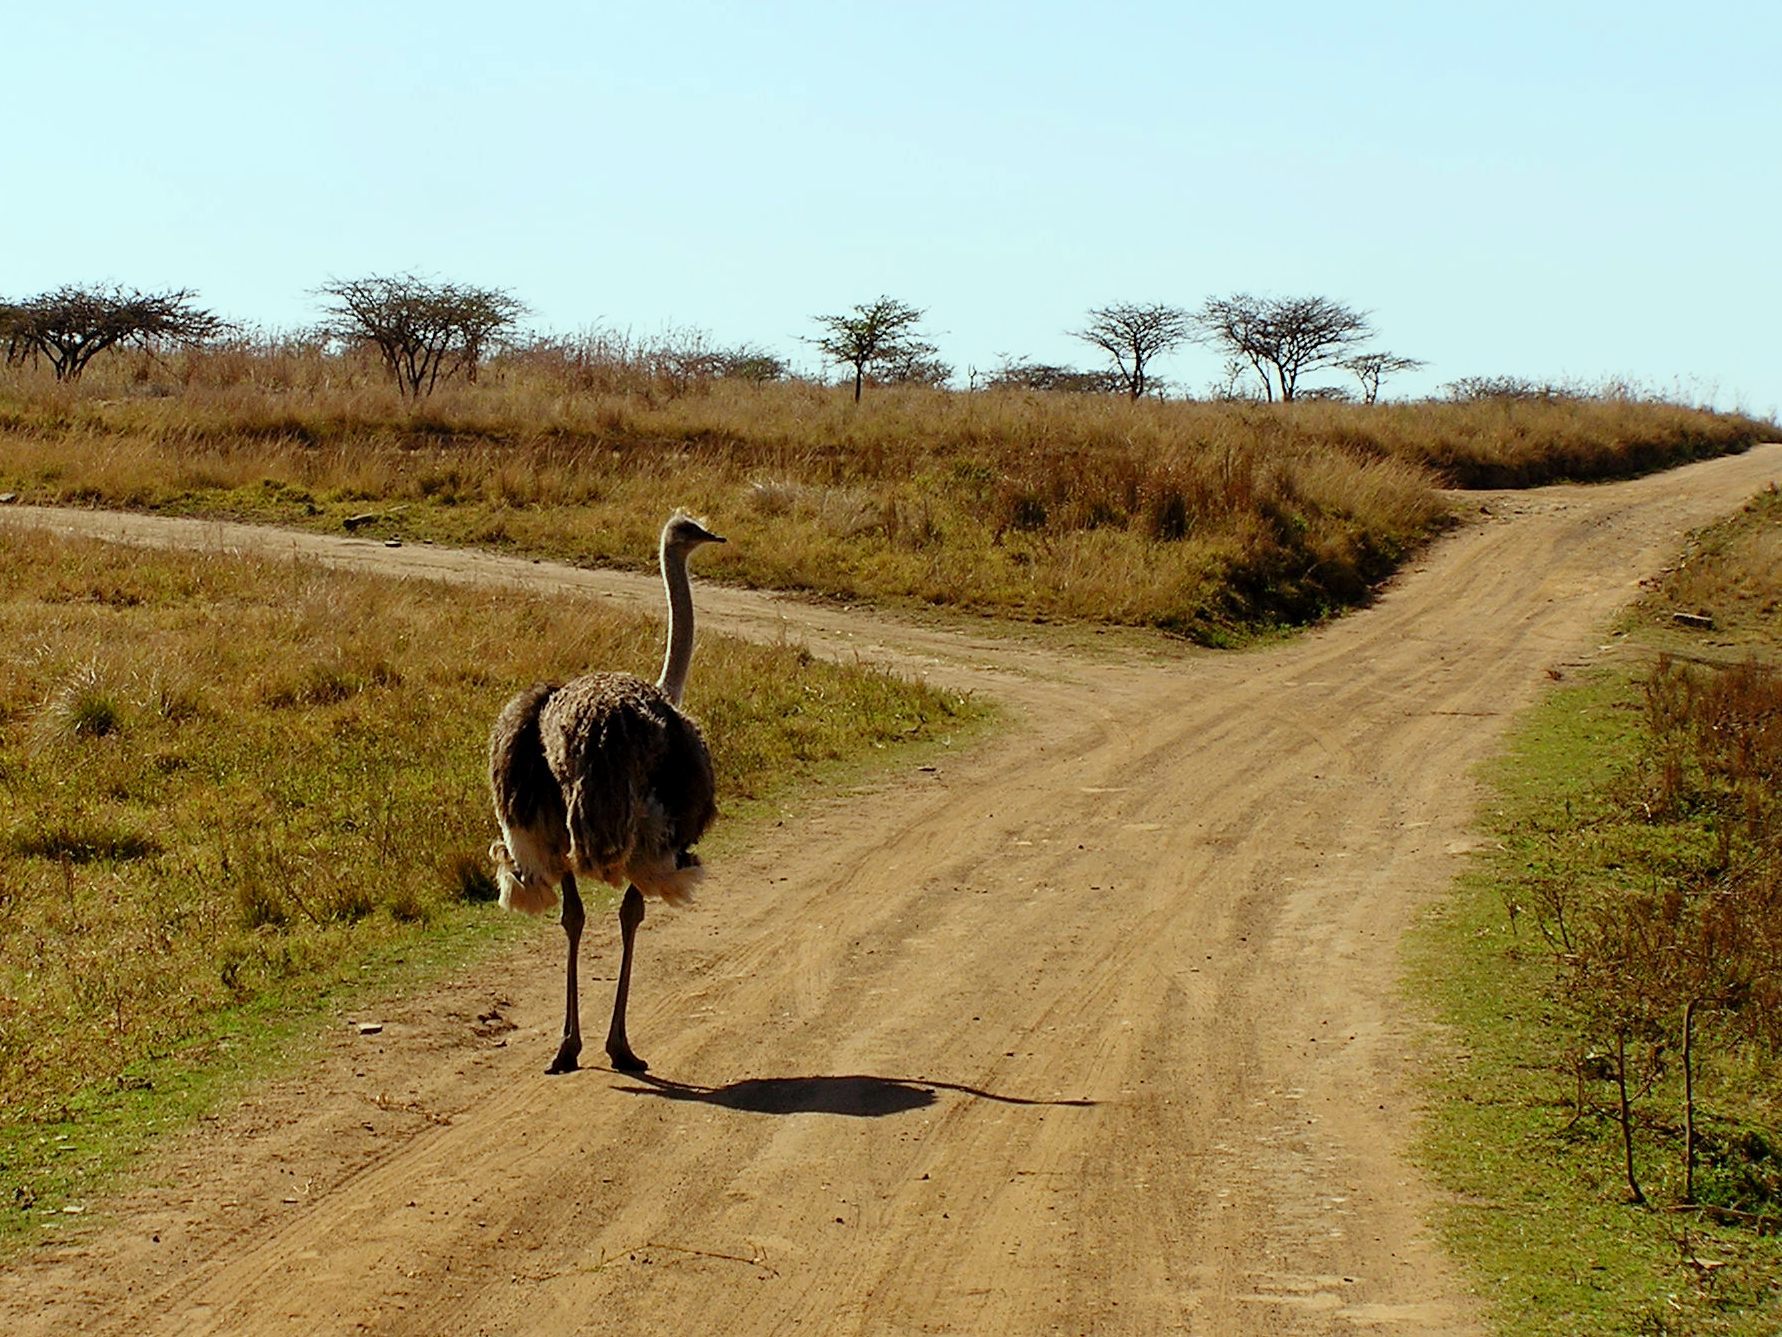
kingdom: Animalia
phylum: Chordata
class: Aves
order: Struthioniformes
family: Struthionidae
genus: Struthio
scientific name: Struthio camelus
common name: Common ostrich
